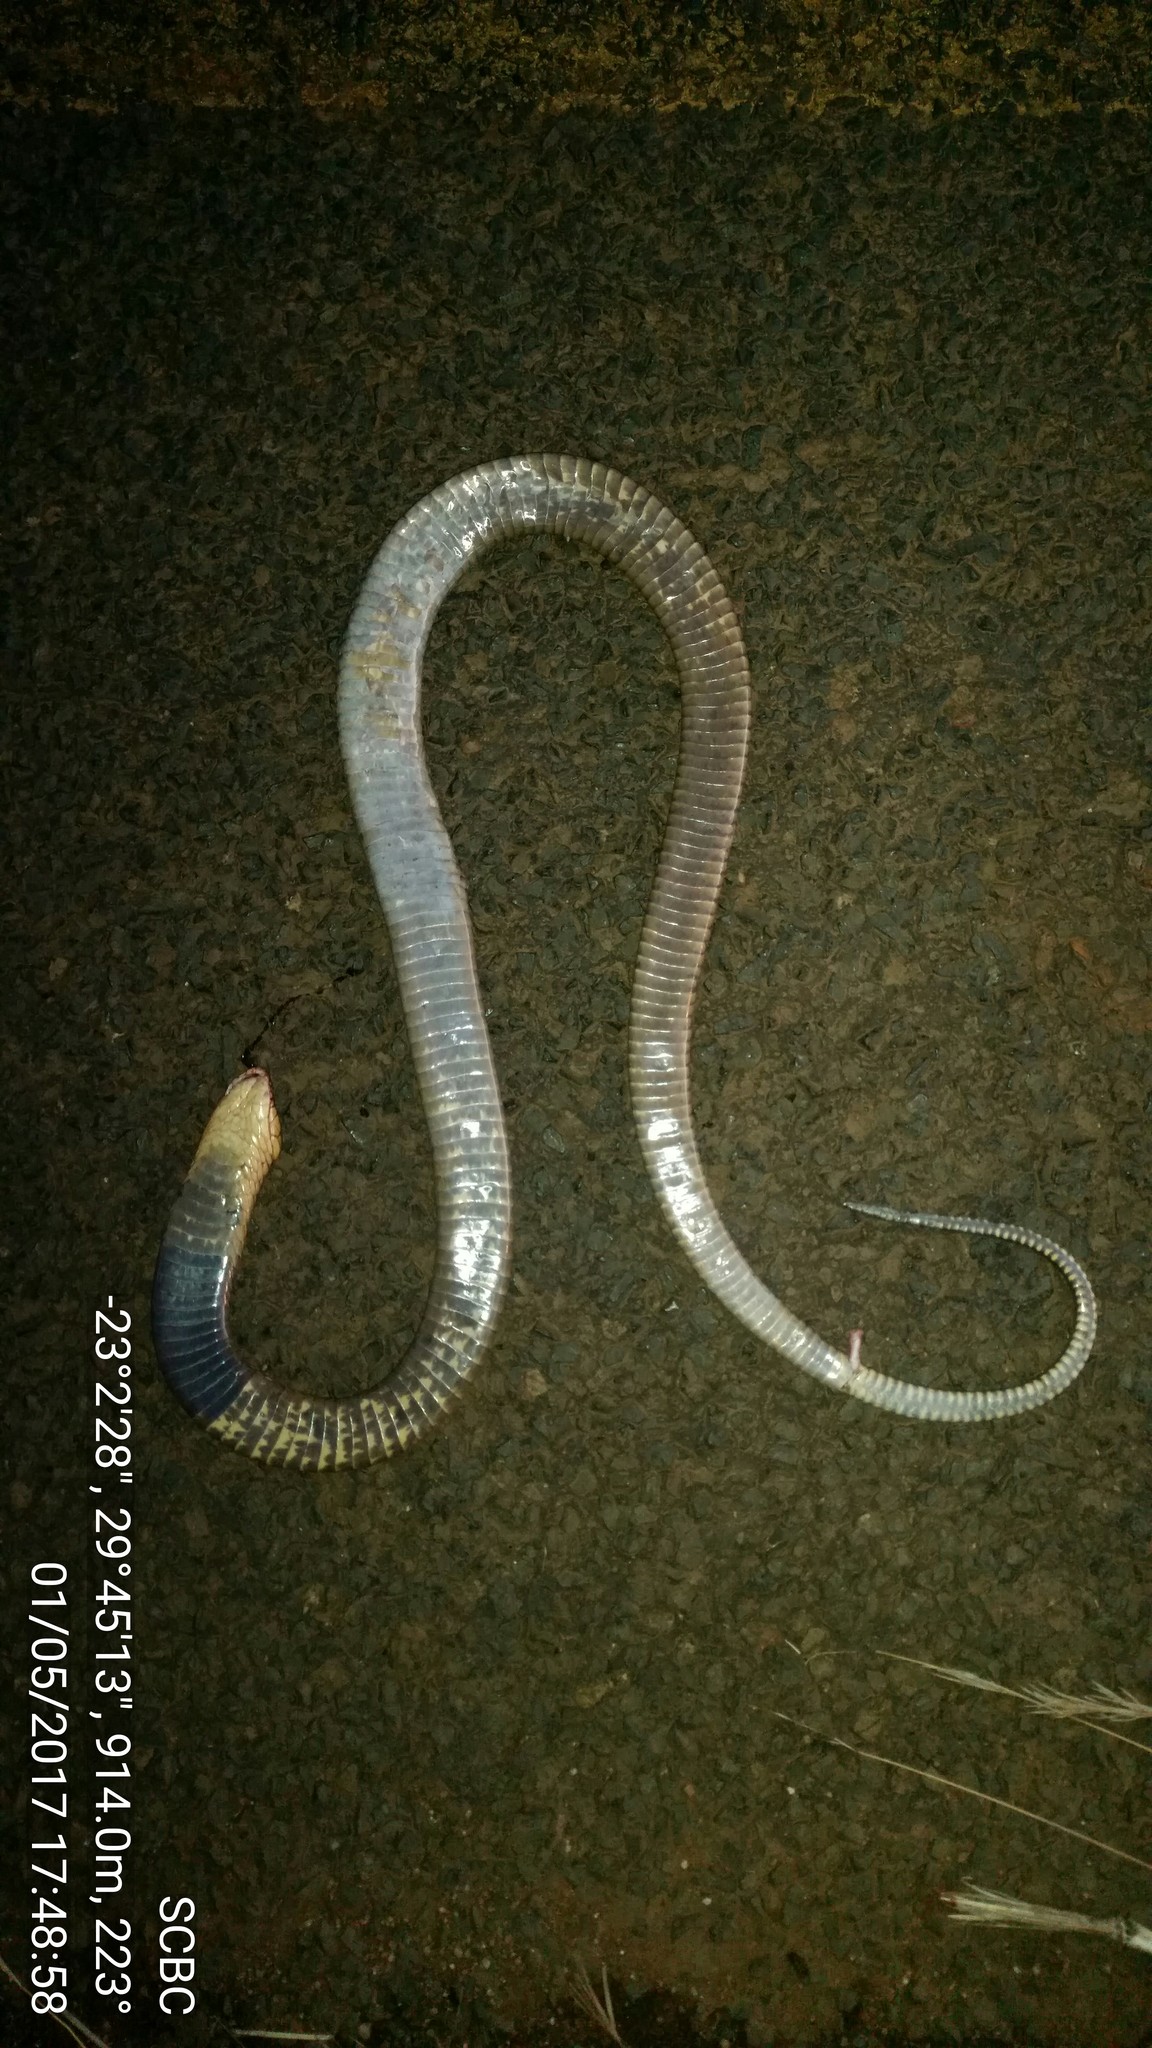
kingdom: Animalia
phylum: Chordata
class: Squamata
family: Elapidae
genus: Naja
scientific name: Naja annulifera
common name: Snouted cobra
